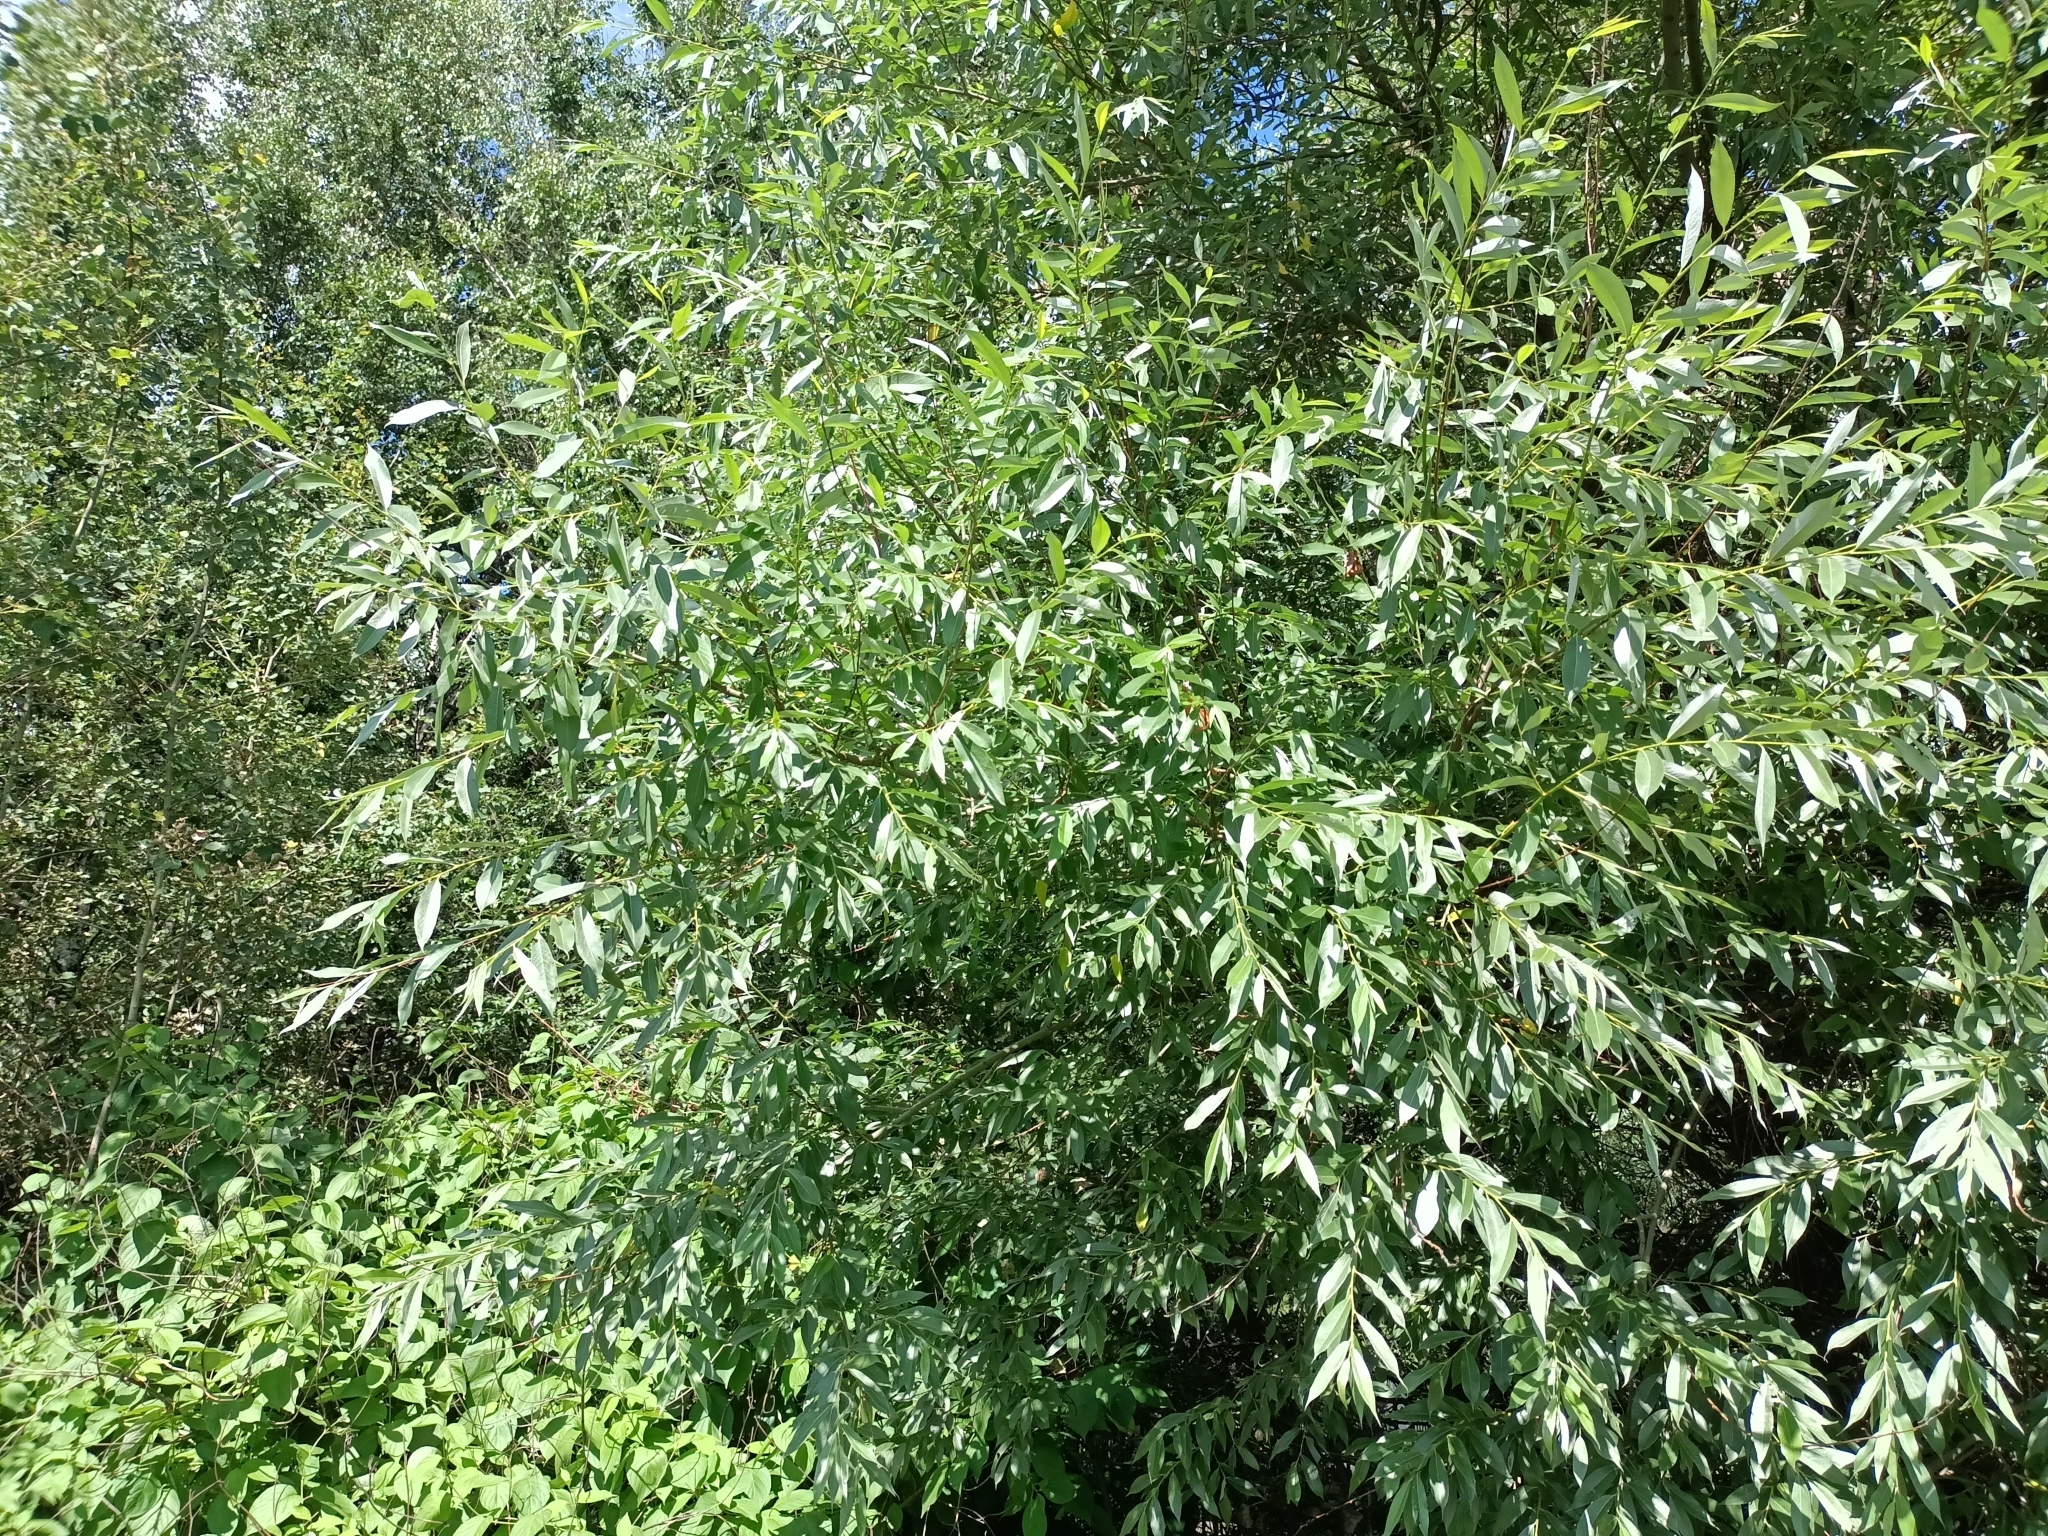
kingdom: Plantae
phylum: Tracheophyta
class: Magnoliopsida
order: Malpighiales
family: Salicaceae
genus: Salix
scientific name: Salix alba
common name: White willow
